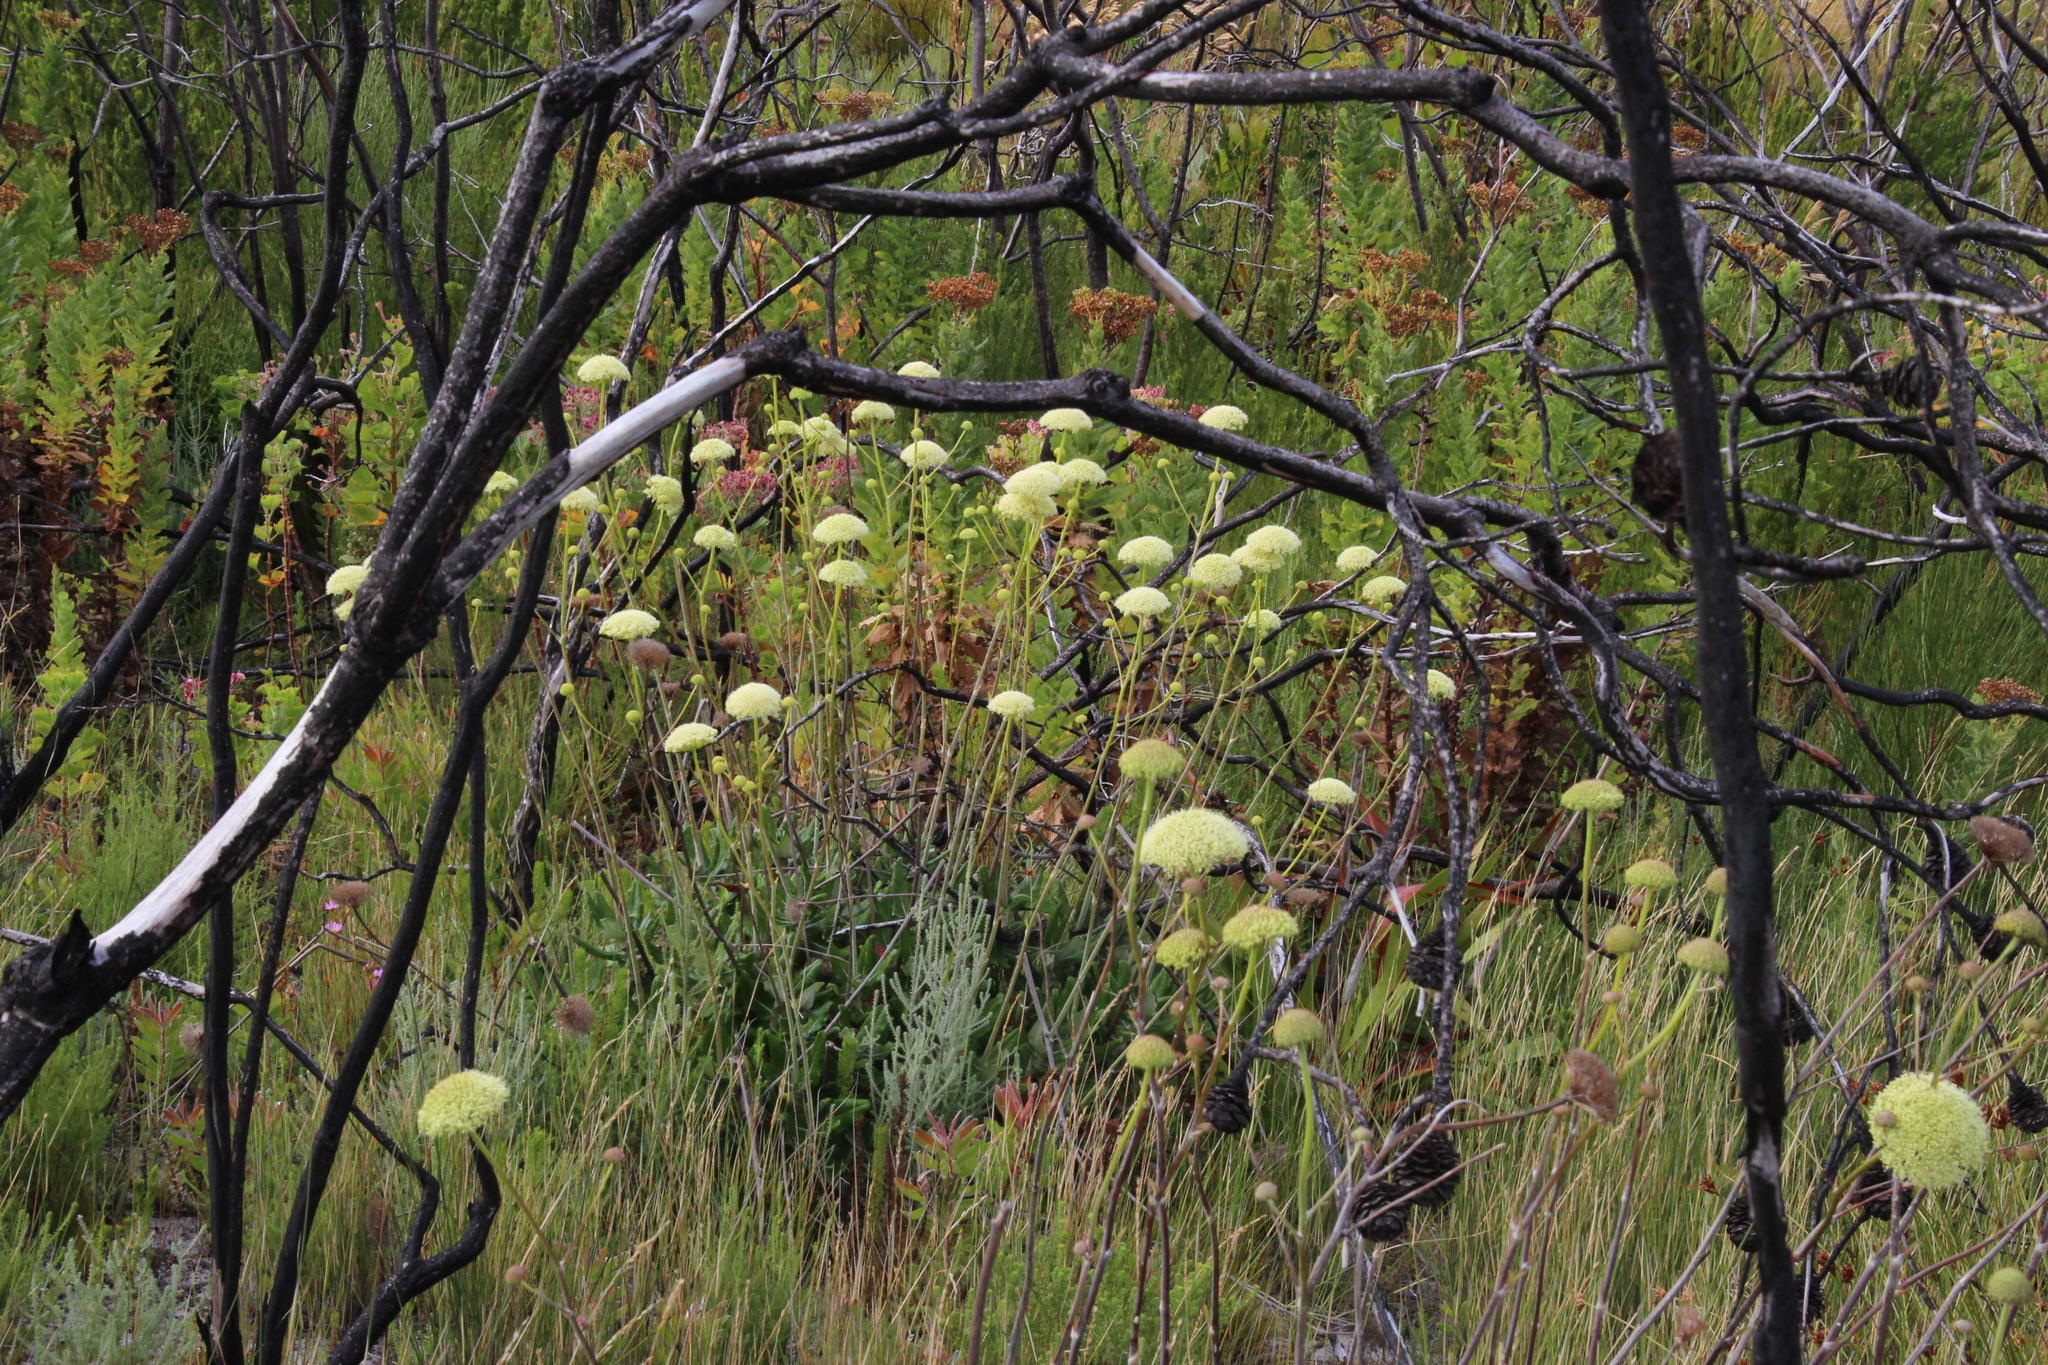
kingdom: Plantae
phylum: Tracheophyta
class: Magnoliopsida
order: Apiales
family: Apiaceae
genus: Hermas
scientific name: Hermas villosa
